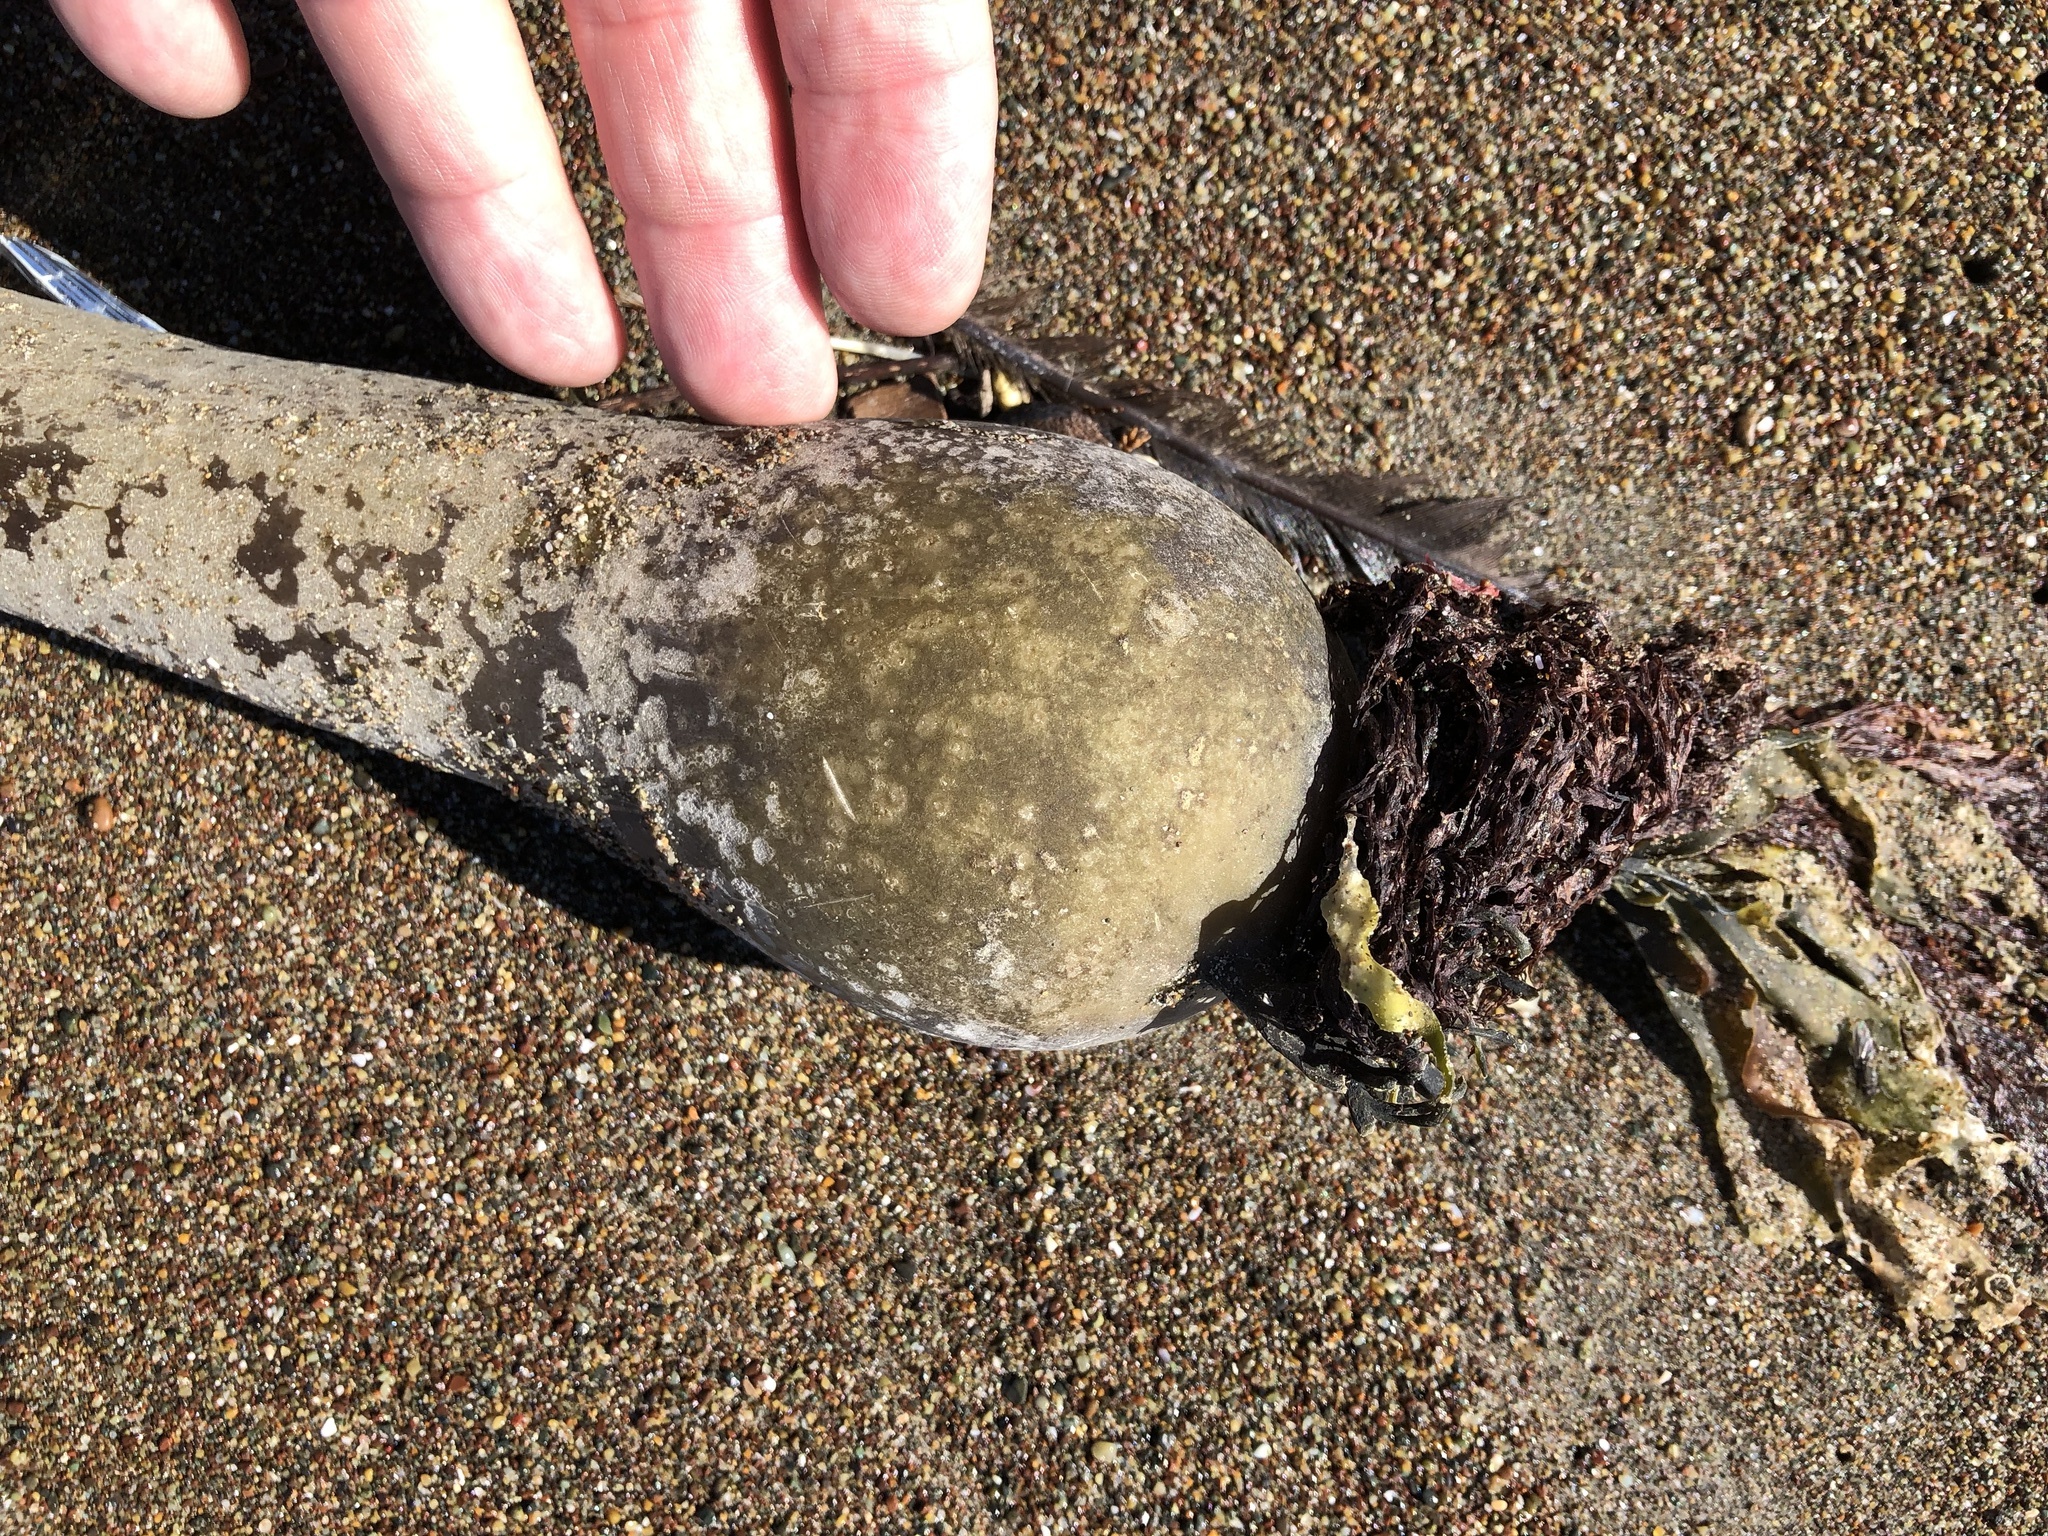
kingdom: Chromista
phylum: Ochrophyta
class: Phaeophyceae
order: Laminariales
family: Laminariaceae
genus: Nereocystis
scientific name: Nereocystis luetkeana
